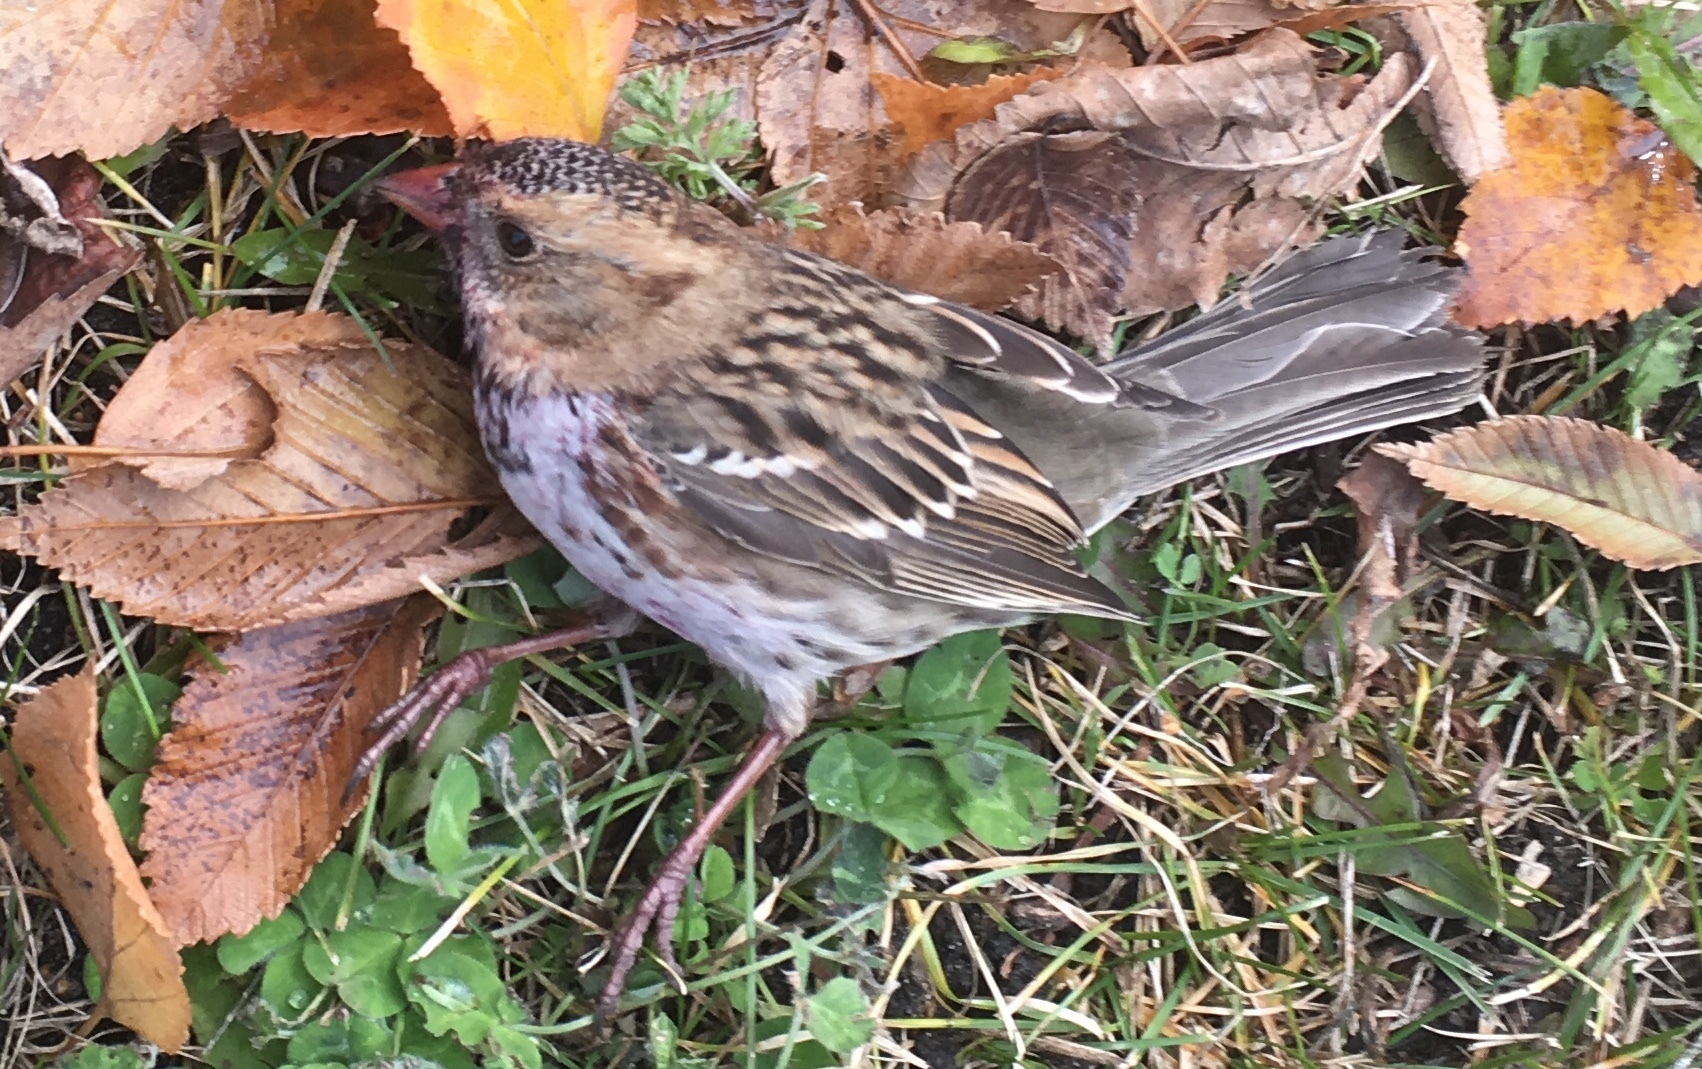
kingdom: Animalia
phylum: Chordata
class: Aves
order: Passeriformes
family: Passerellidae
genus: Zonotrichia
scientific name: Zonotrichia querula
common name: Harris's sparrow
